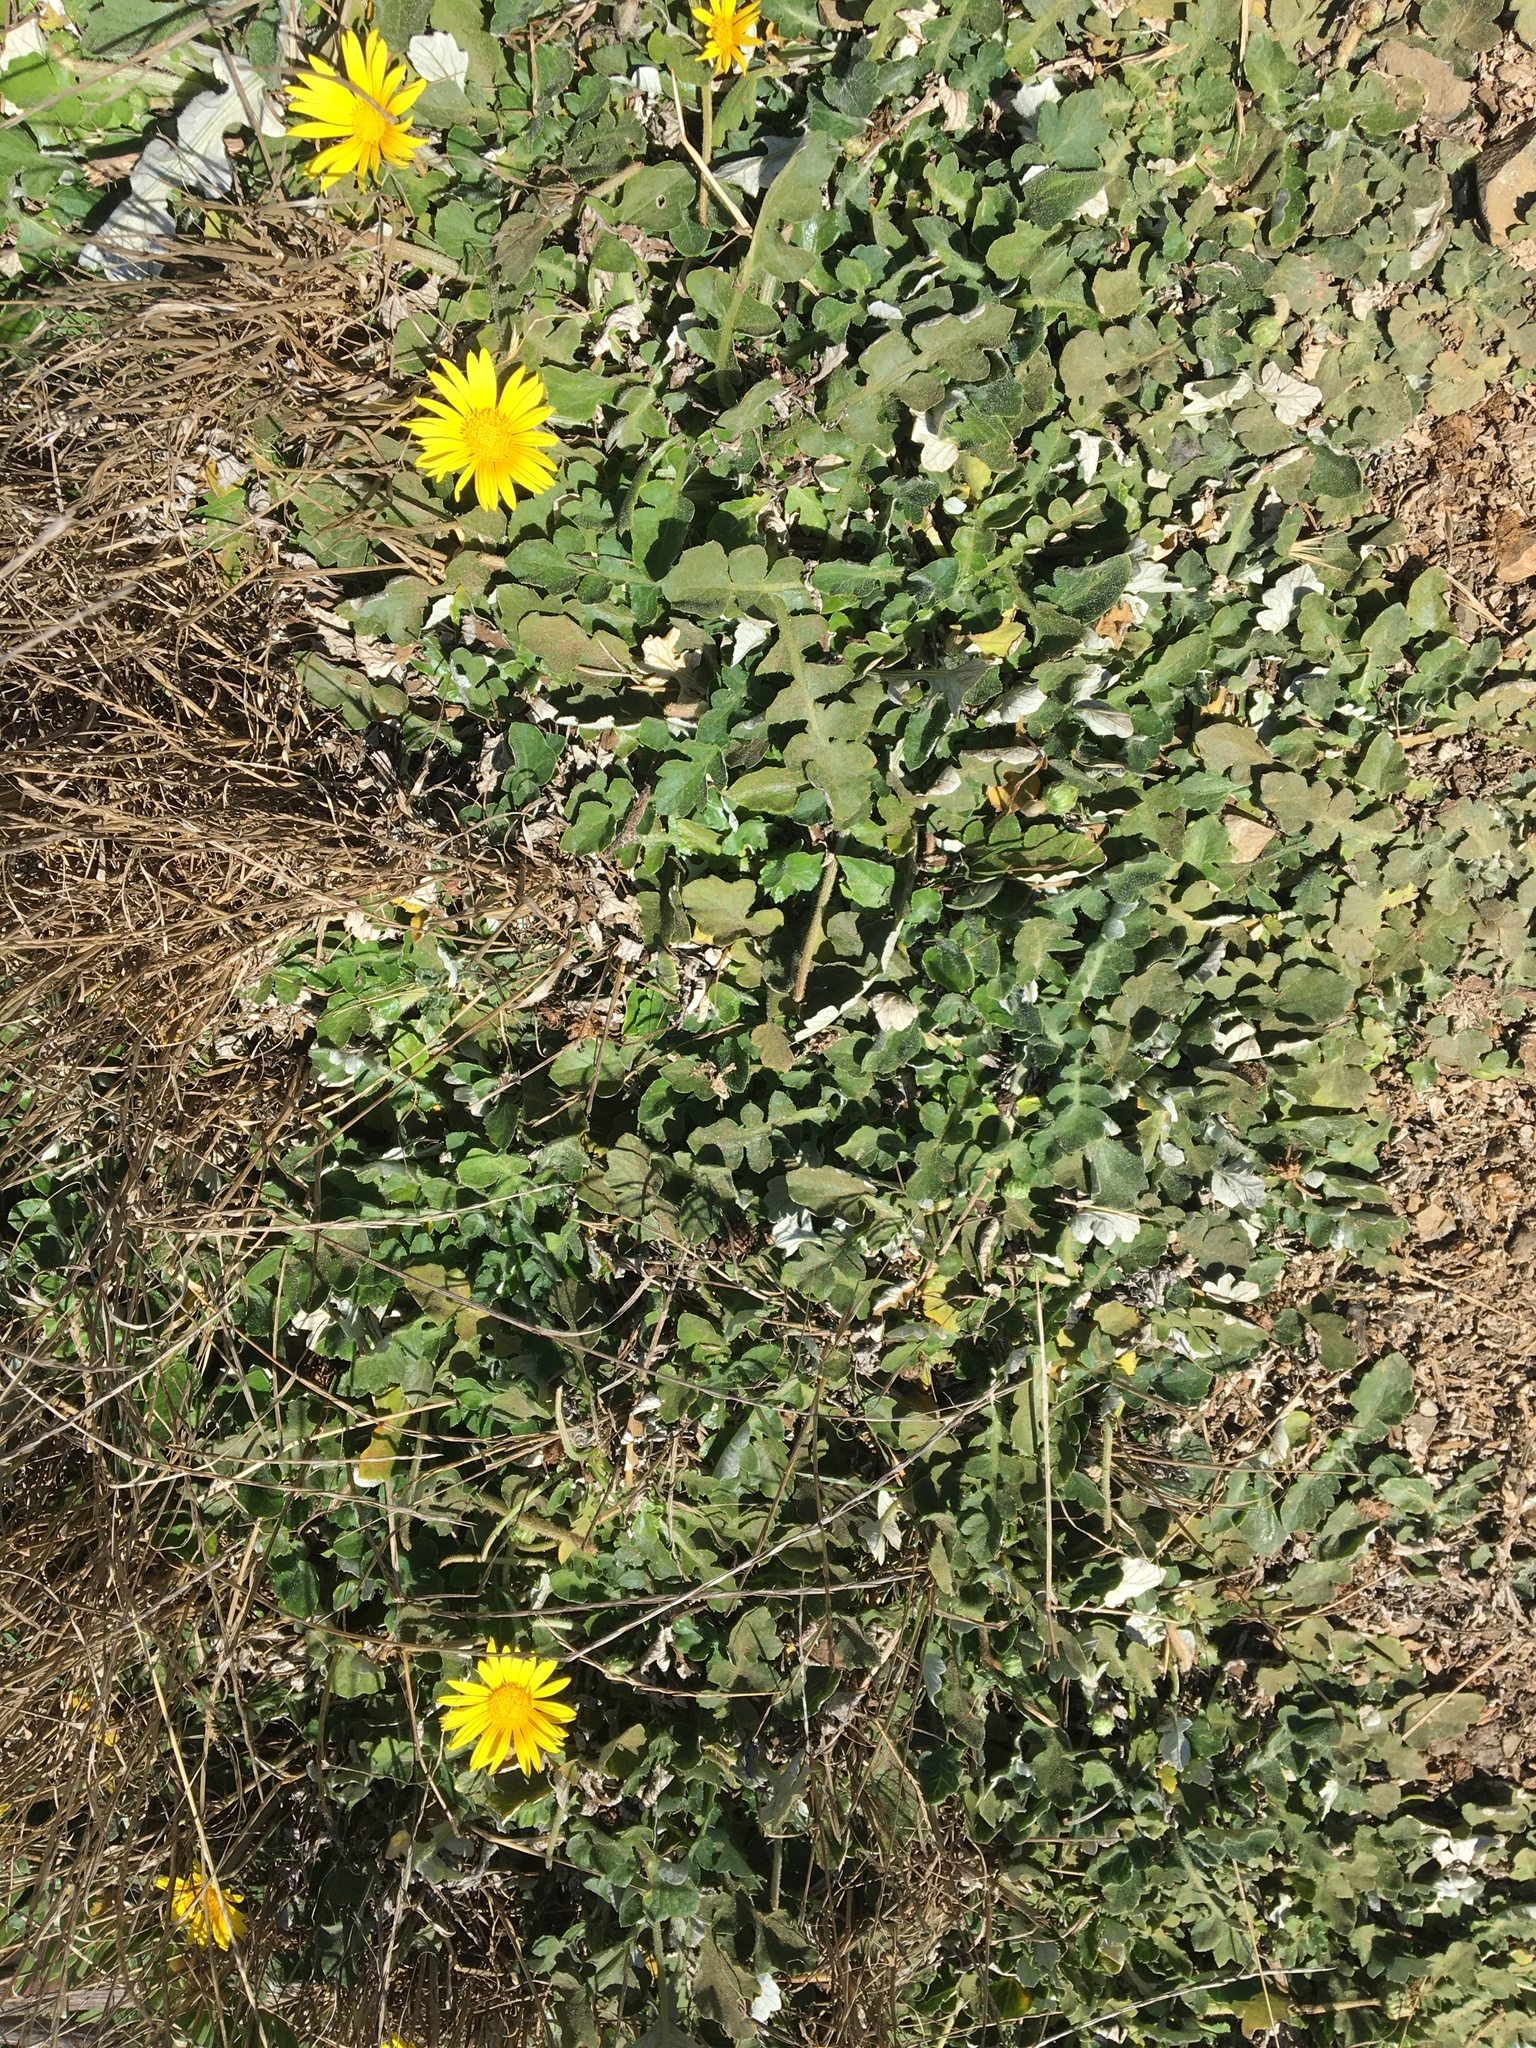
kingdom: Plantae
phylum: Tracheophyta
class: Magnoliopsida
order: Asterales
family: Asteraceae
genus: Arctotheca
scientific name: Arctotheca prostrata
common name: Capeweed
